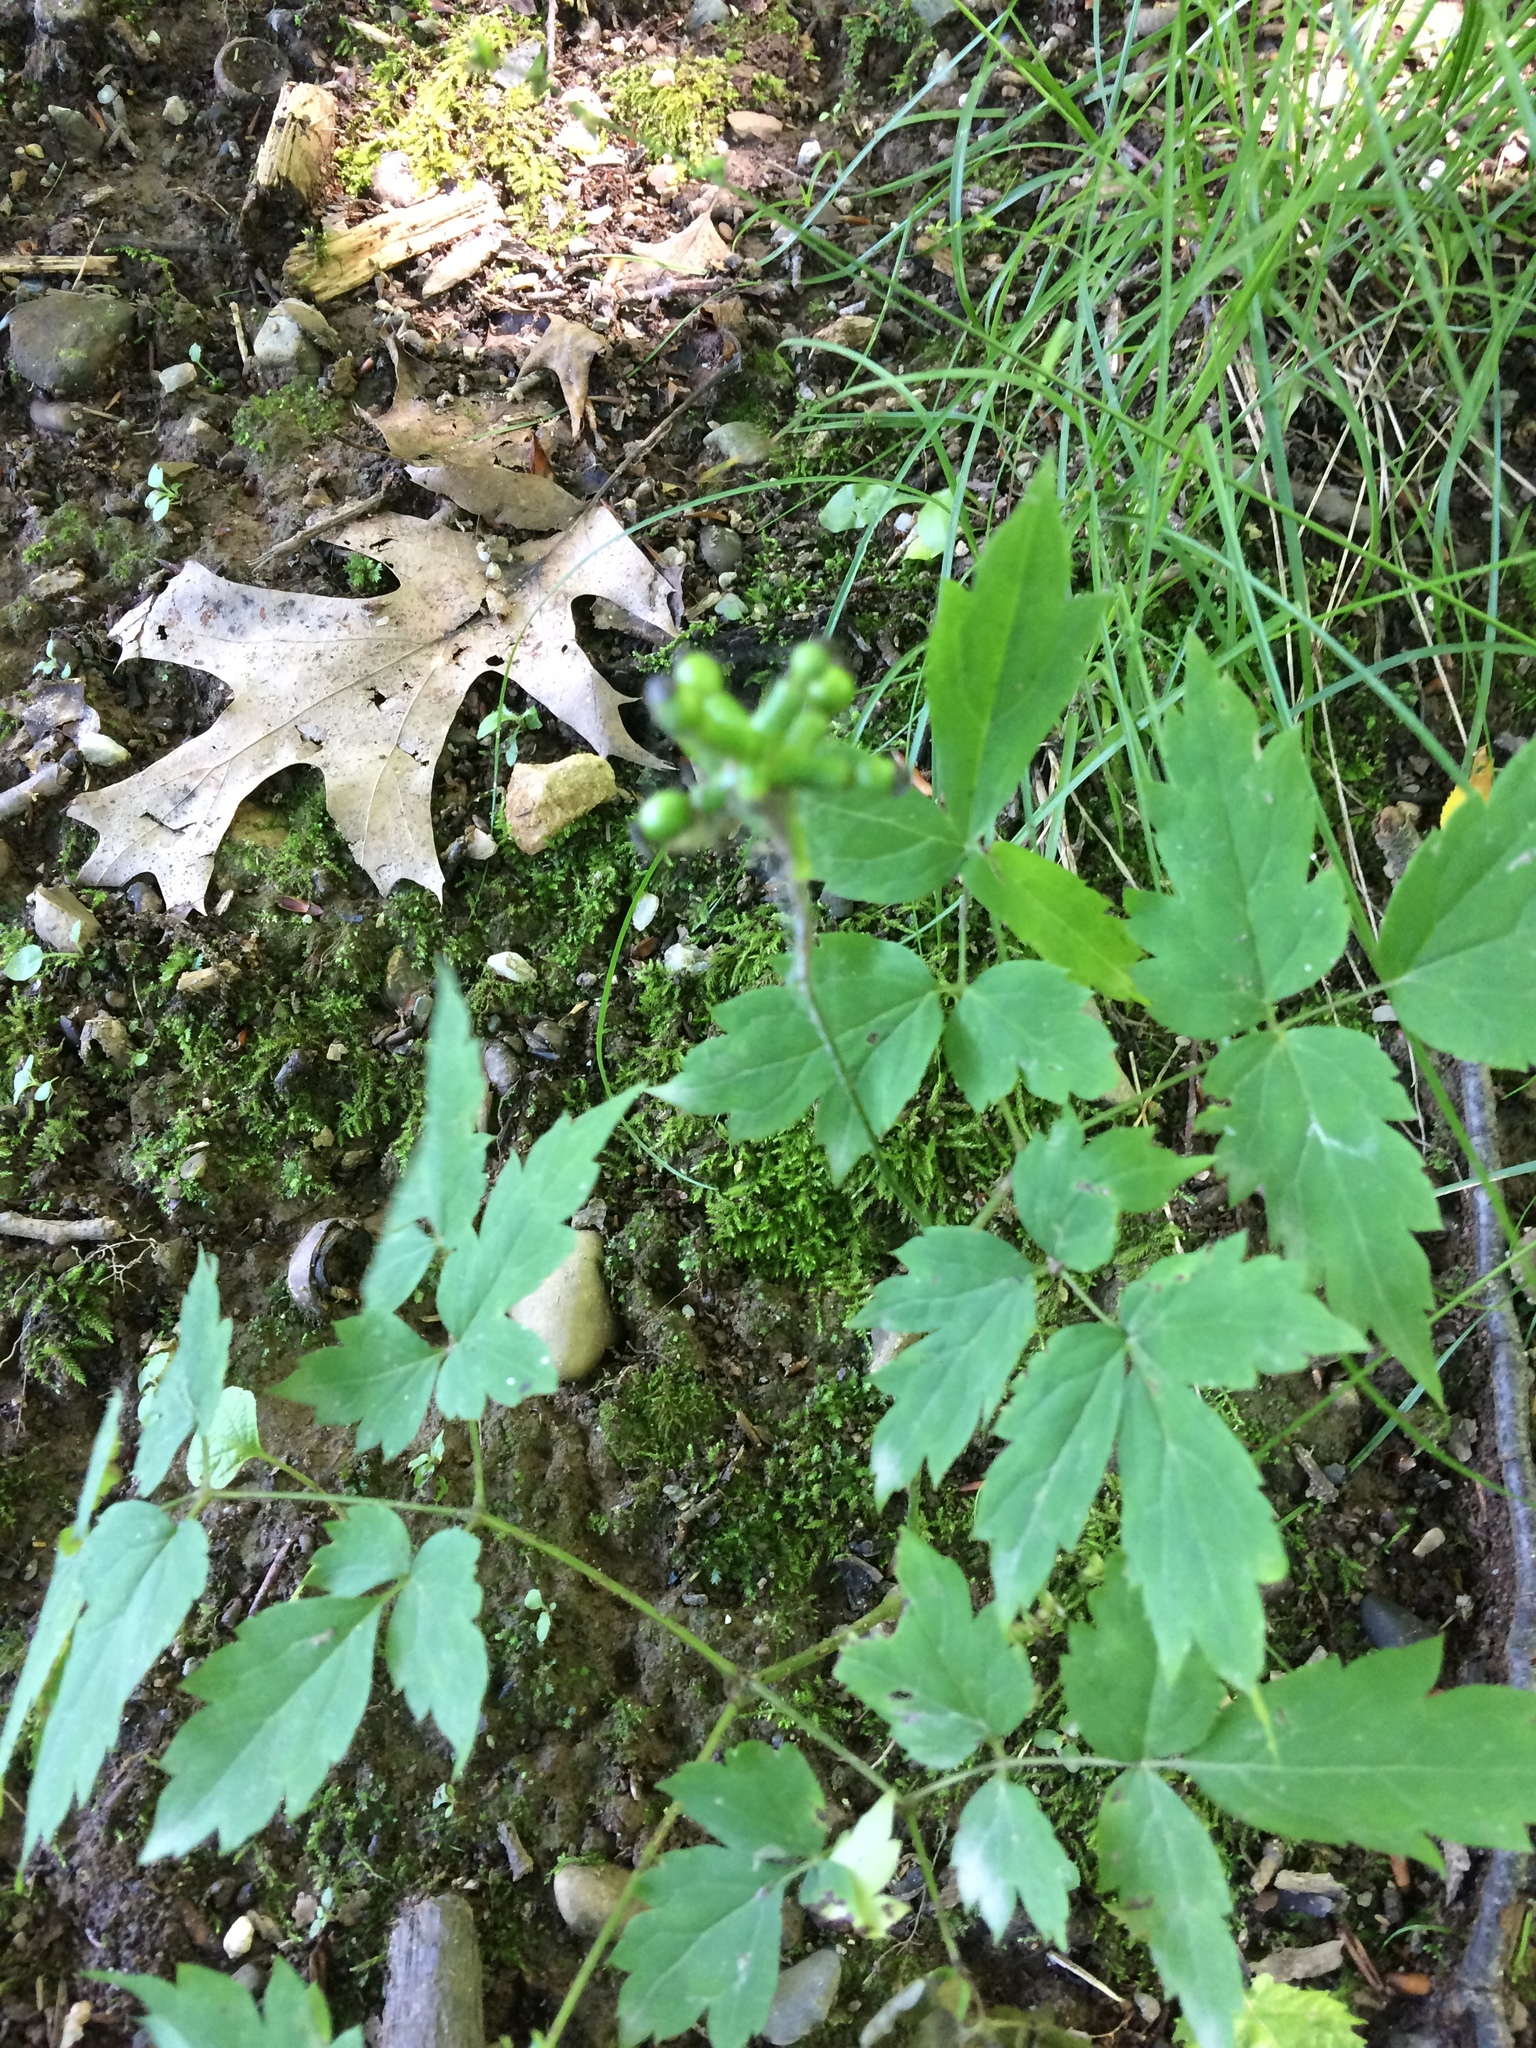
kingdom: Plantae
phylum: Tracheophyta
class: Magnoliopsida
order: Ranunculales
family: Ranunculaceae
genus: Actaea
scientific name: Actaea pachypoda
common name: Doll's-eyes
